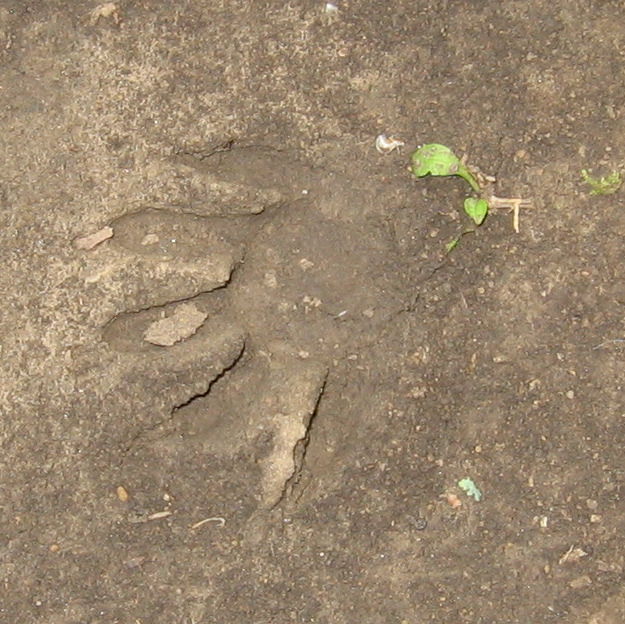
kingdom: Animalia
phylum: Chordata
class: Mammalia
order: Carnivora
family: Procyonidae
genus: Procyon
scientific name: Procyon lotor
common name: Raccoon
